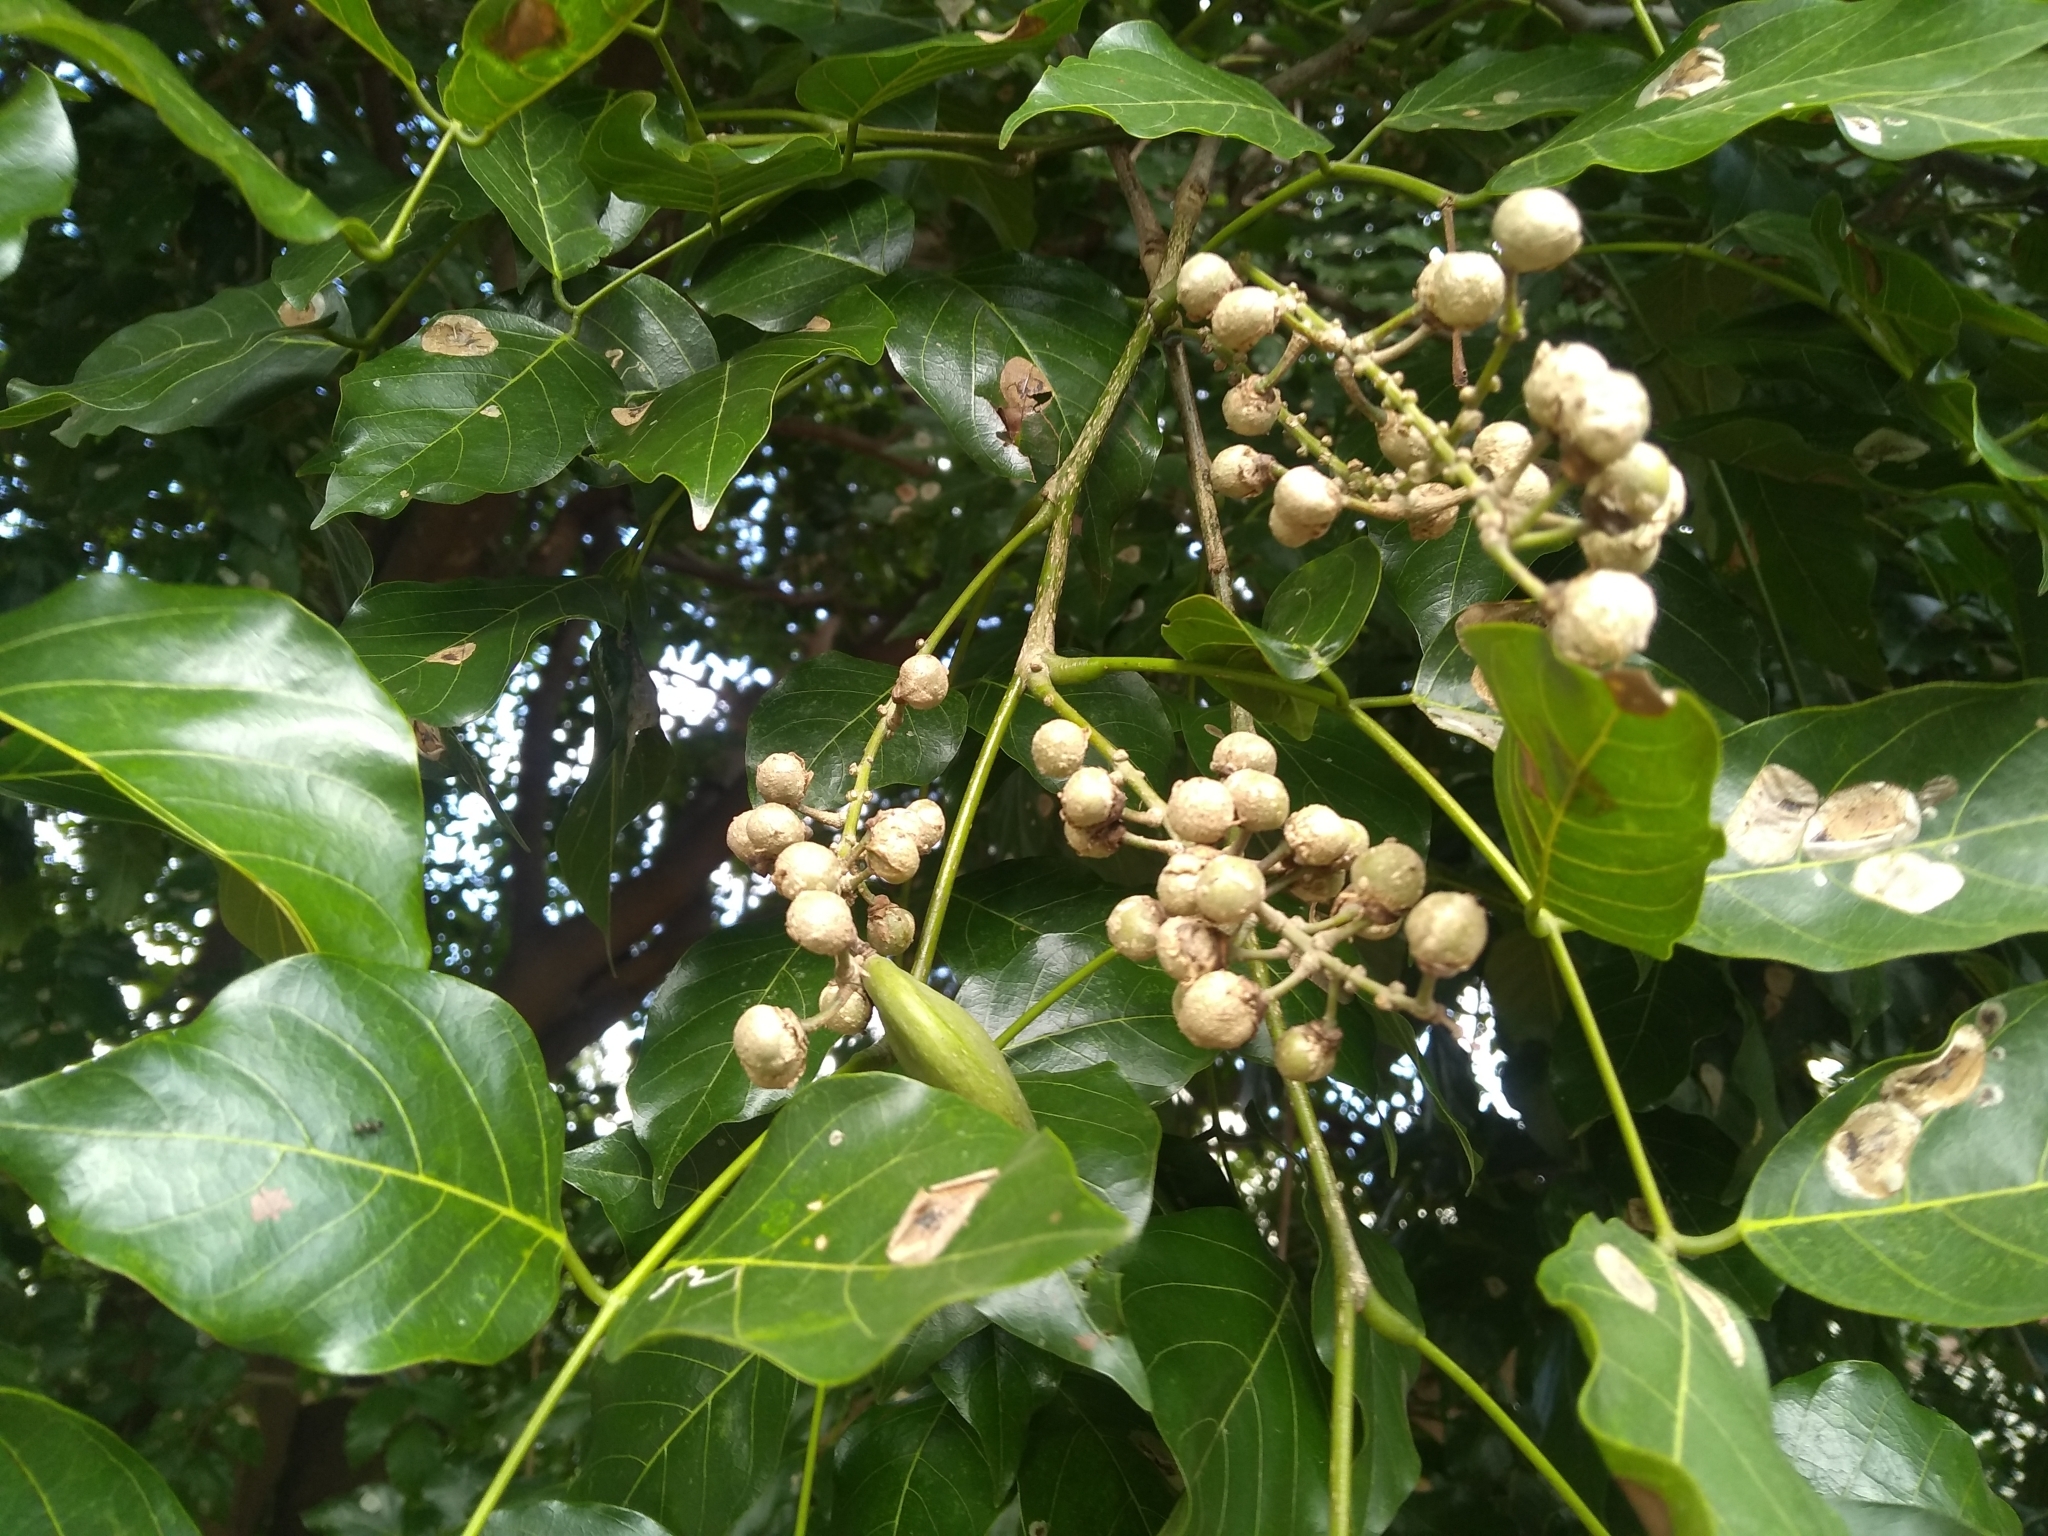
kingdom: Plantae
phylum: Tracheophyta
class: Magnoliopsida
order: Fabales
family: Fabaceae
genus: Pongamia
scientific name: Pongamia pinnata
